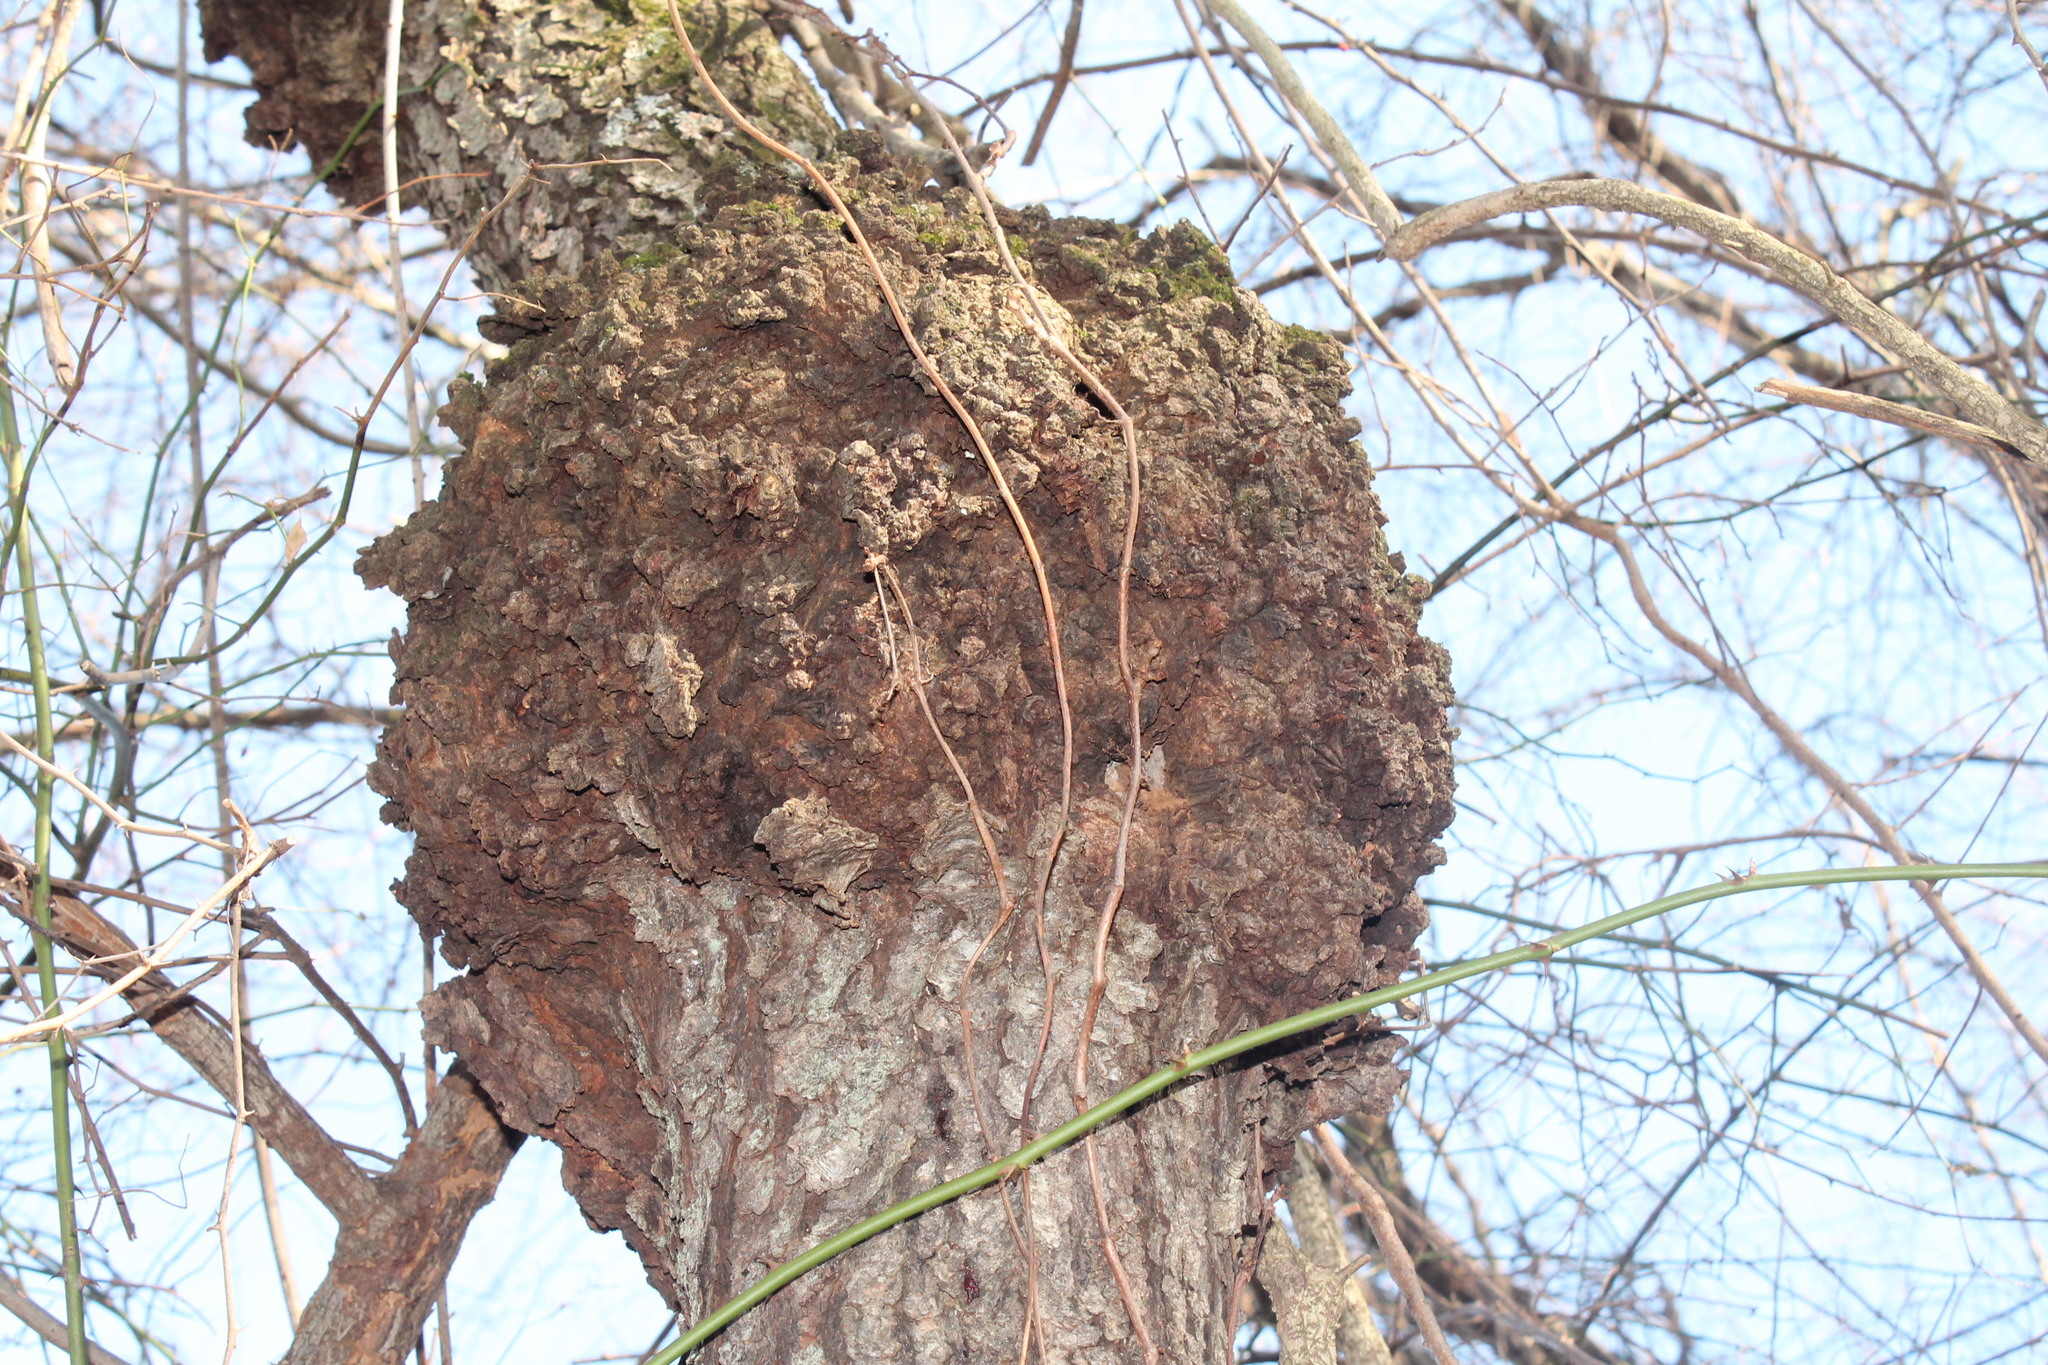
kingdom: Bacteria
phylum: Proteobacteria
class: Alphaproteobacteria
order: Rhizobiales
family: Rhizobiaceae
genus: Rhizobium
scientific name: Rhizobium Agrobacterium radiobacter
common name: Bacterial crown gall
